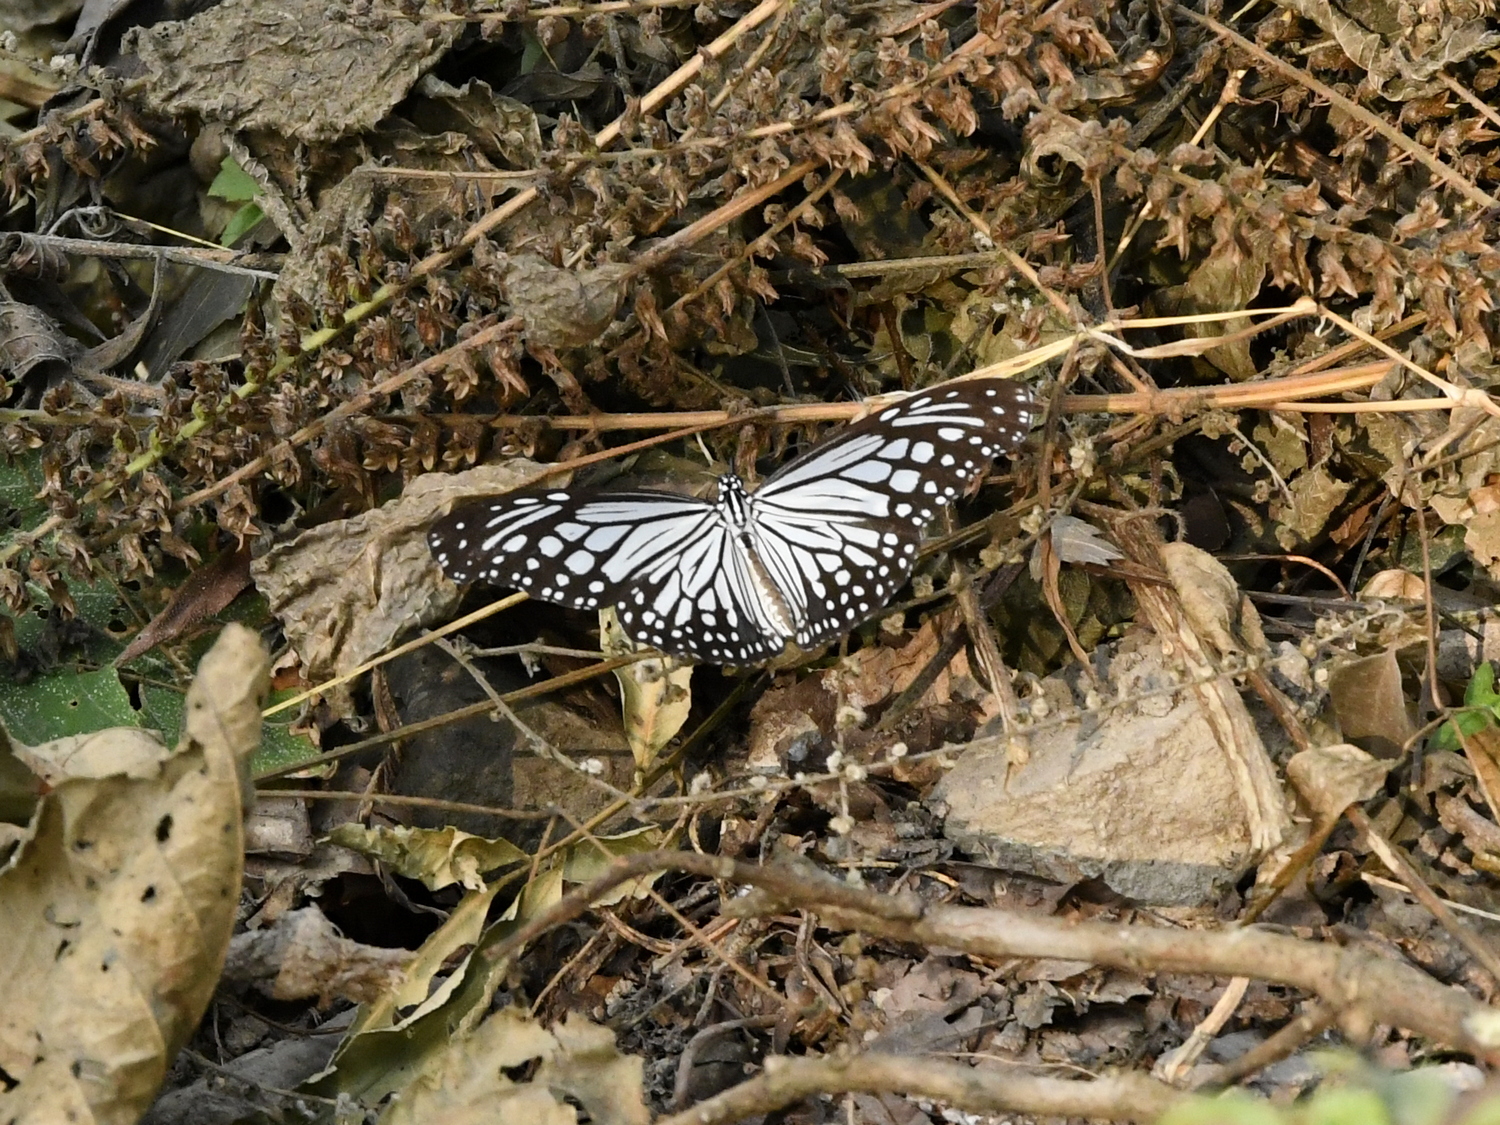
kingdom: Animalia
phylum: Arthropoda
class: Insecta
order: Lepidoptera
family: Nymphalidae
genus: Parantica
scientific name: Parantica aglea
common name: Glassy tiger
